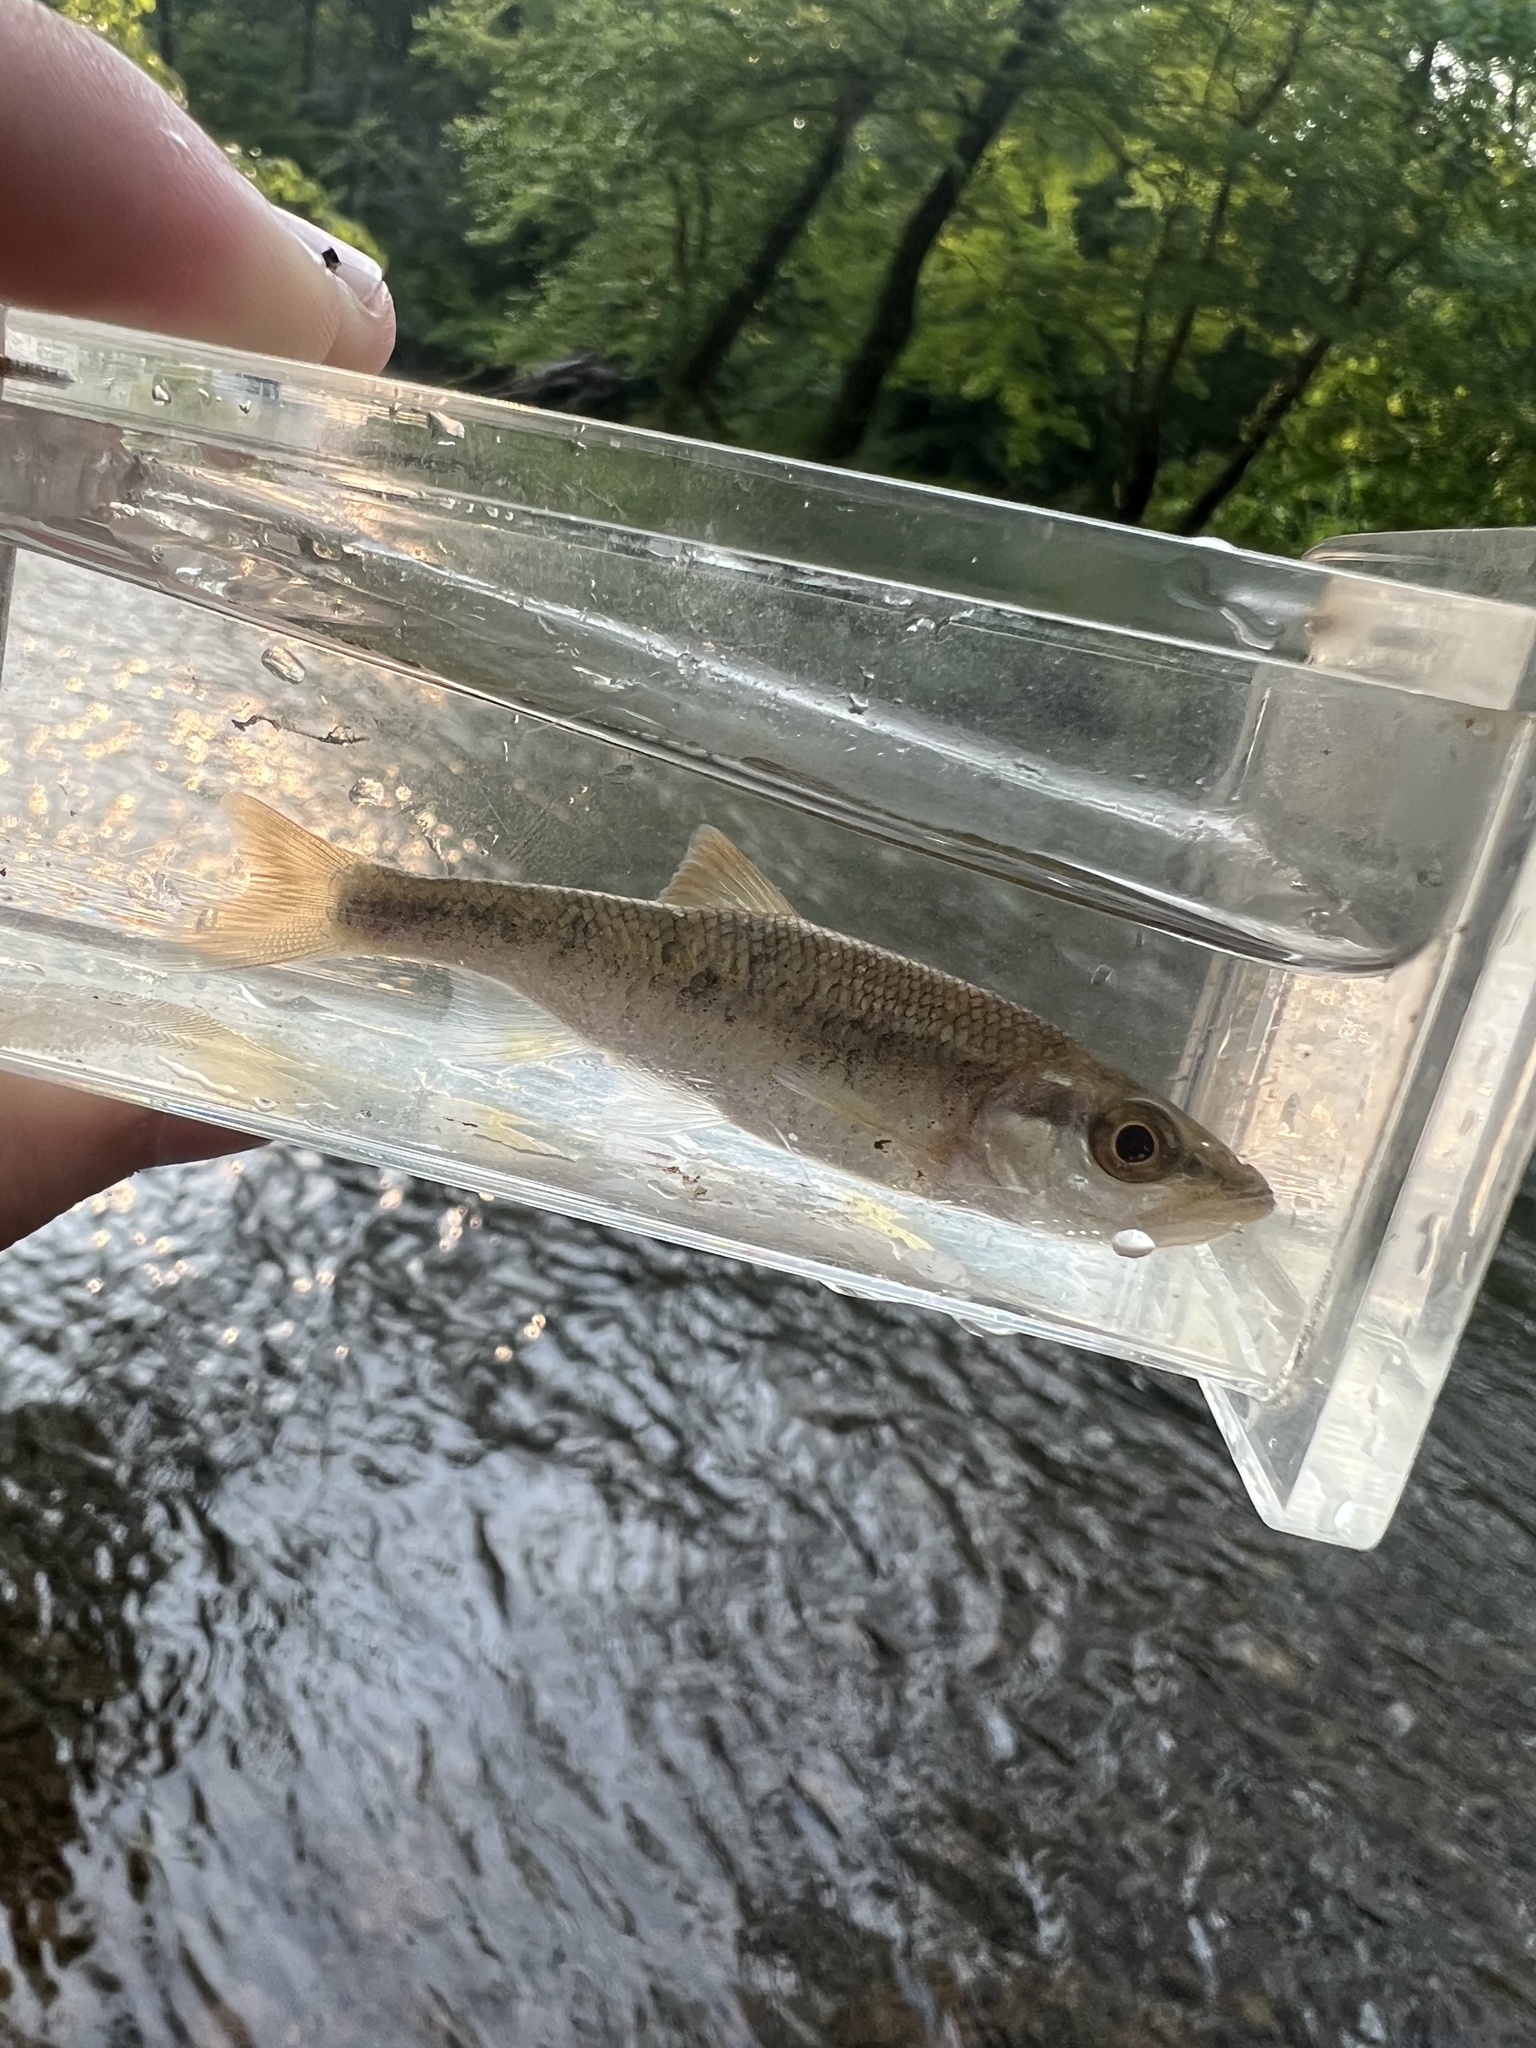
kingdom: Animalia
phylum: Chordata
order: Cypriniformes
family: Cyprinidae
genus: Clinostomus
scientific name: Clinostomus funduloides
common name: Rosyside dace
